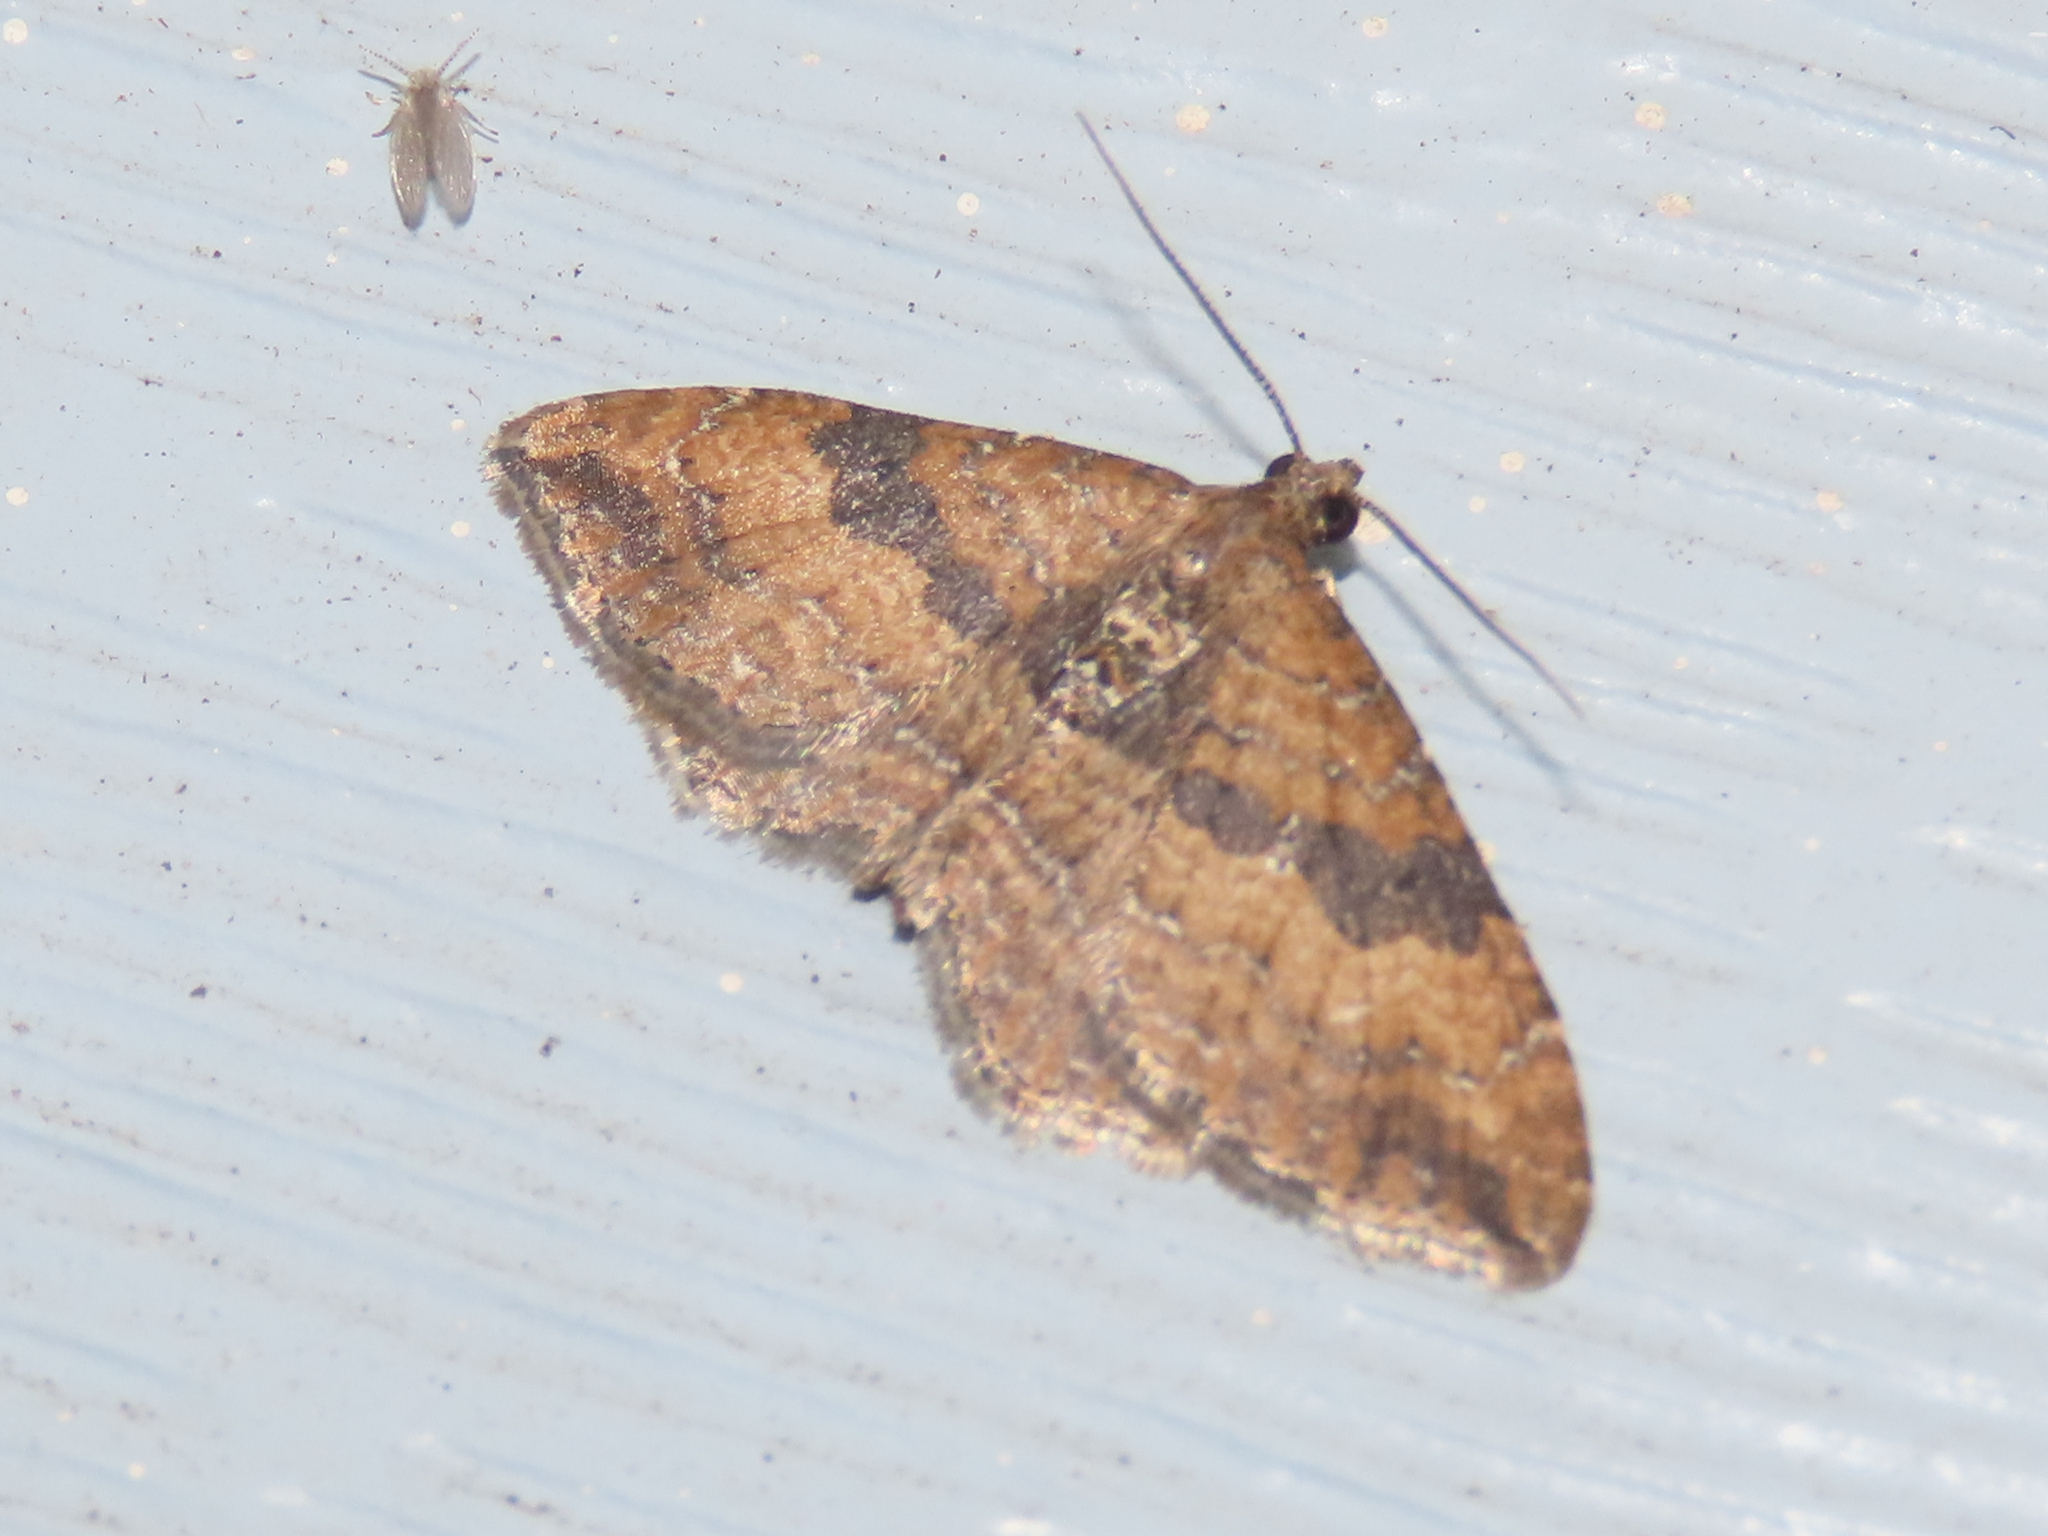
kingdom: Animalia
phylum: Arthropoda
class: Insecta
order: Lepidoptera
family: Geometridae
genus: Orthonama
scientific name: Orthonama obstipata
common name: The gem
